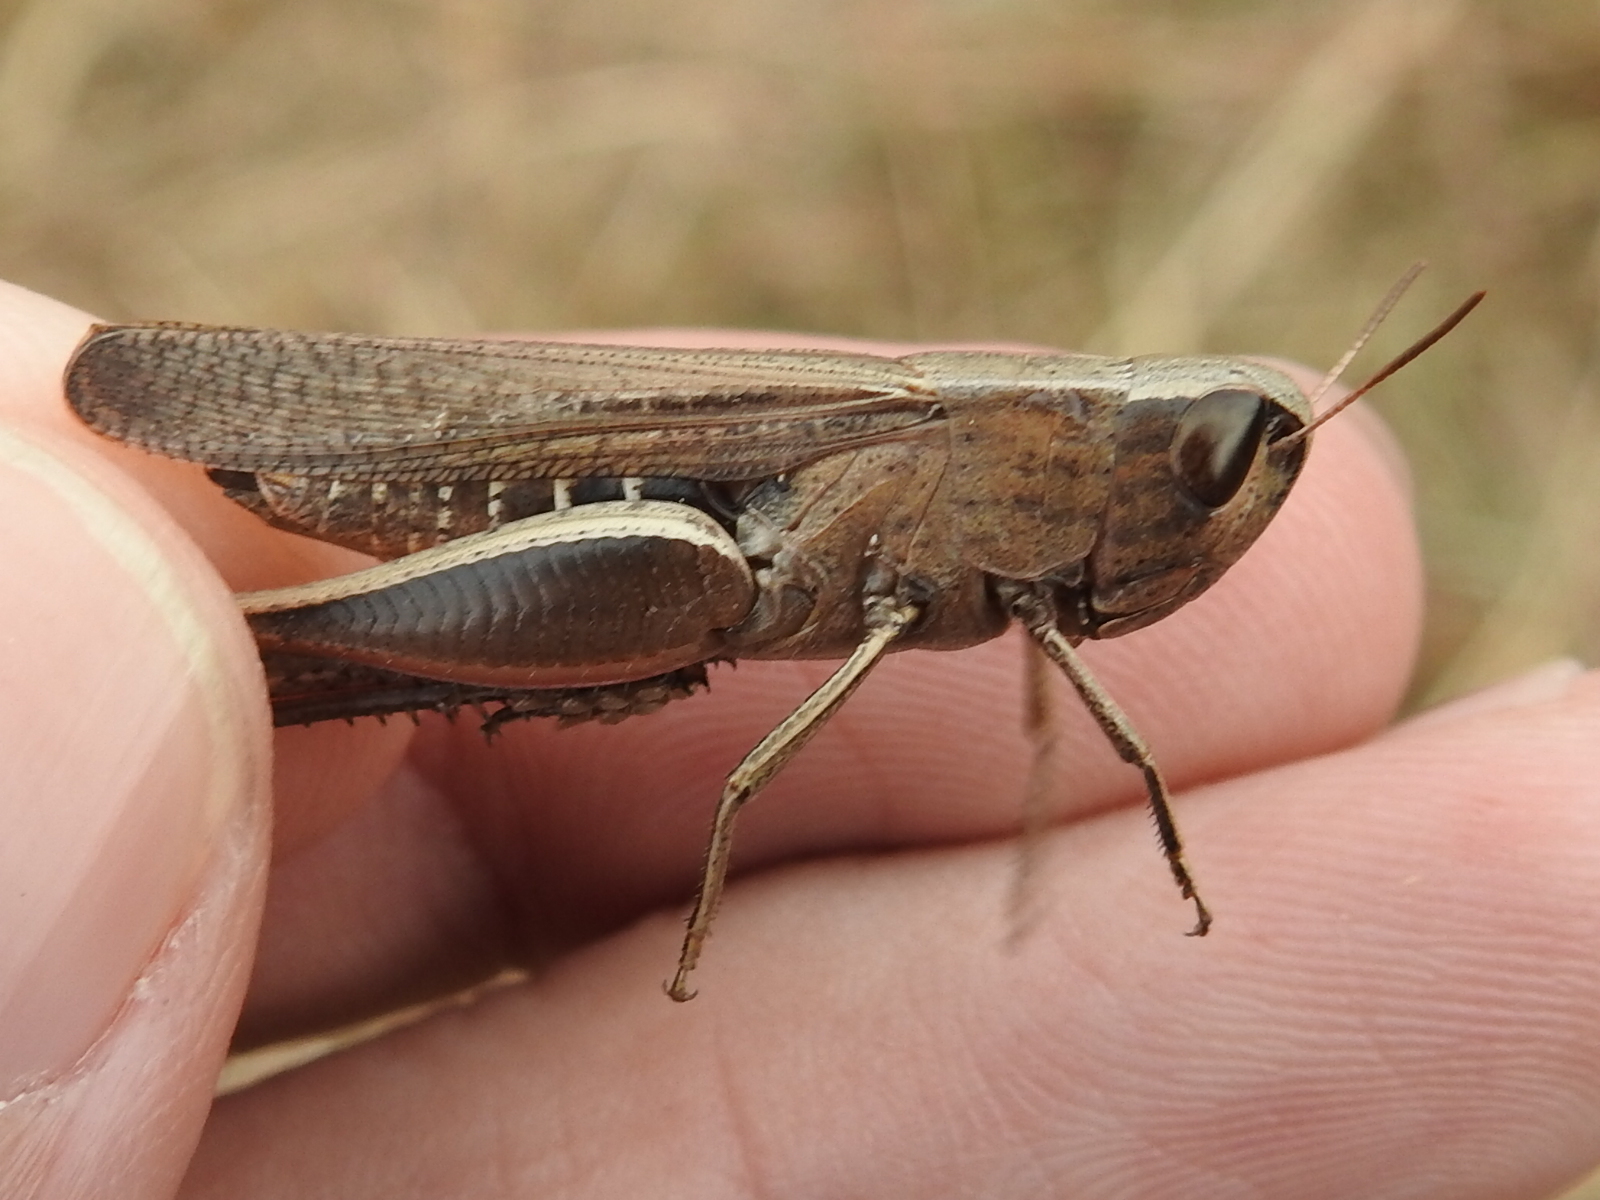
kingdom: Animalia
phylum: Arthropoda
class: Insecta
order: Orthoptera
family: Acrididae
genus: Amblytropidia
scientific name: Amblytropidia mysteca
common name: Brown winter grasshopper
